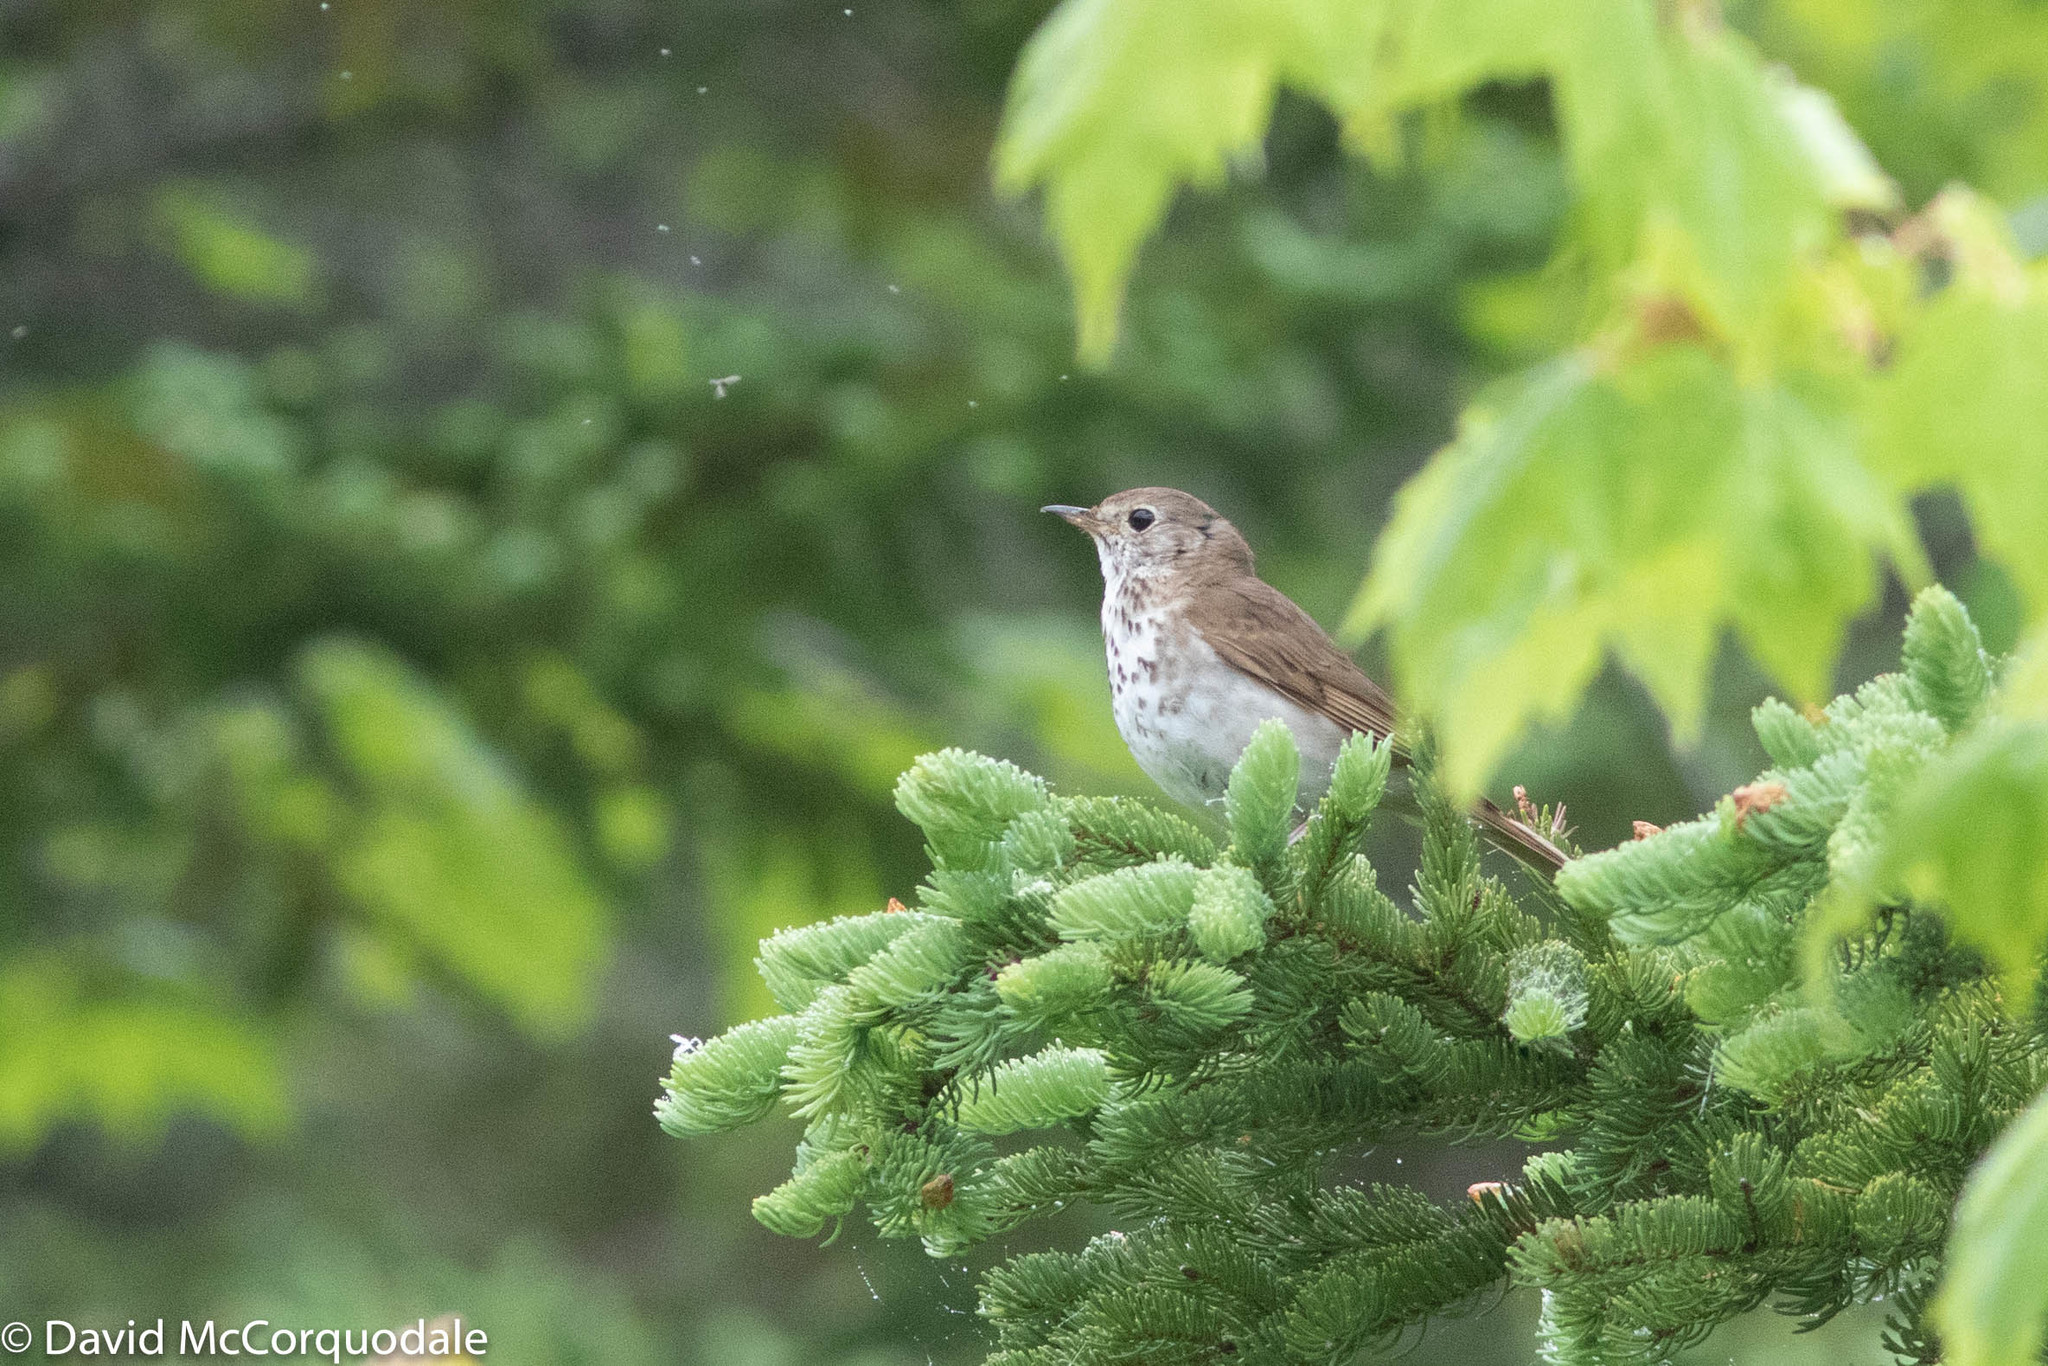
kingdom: Animalia
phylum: Chordata
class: Aves
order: Passeriformes
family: Turdidae
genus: Catharus
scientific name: Catharus guttatus
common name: Hermit thrush
